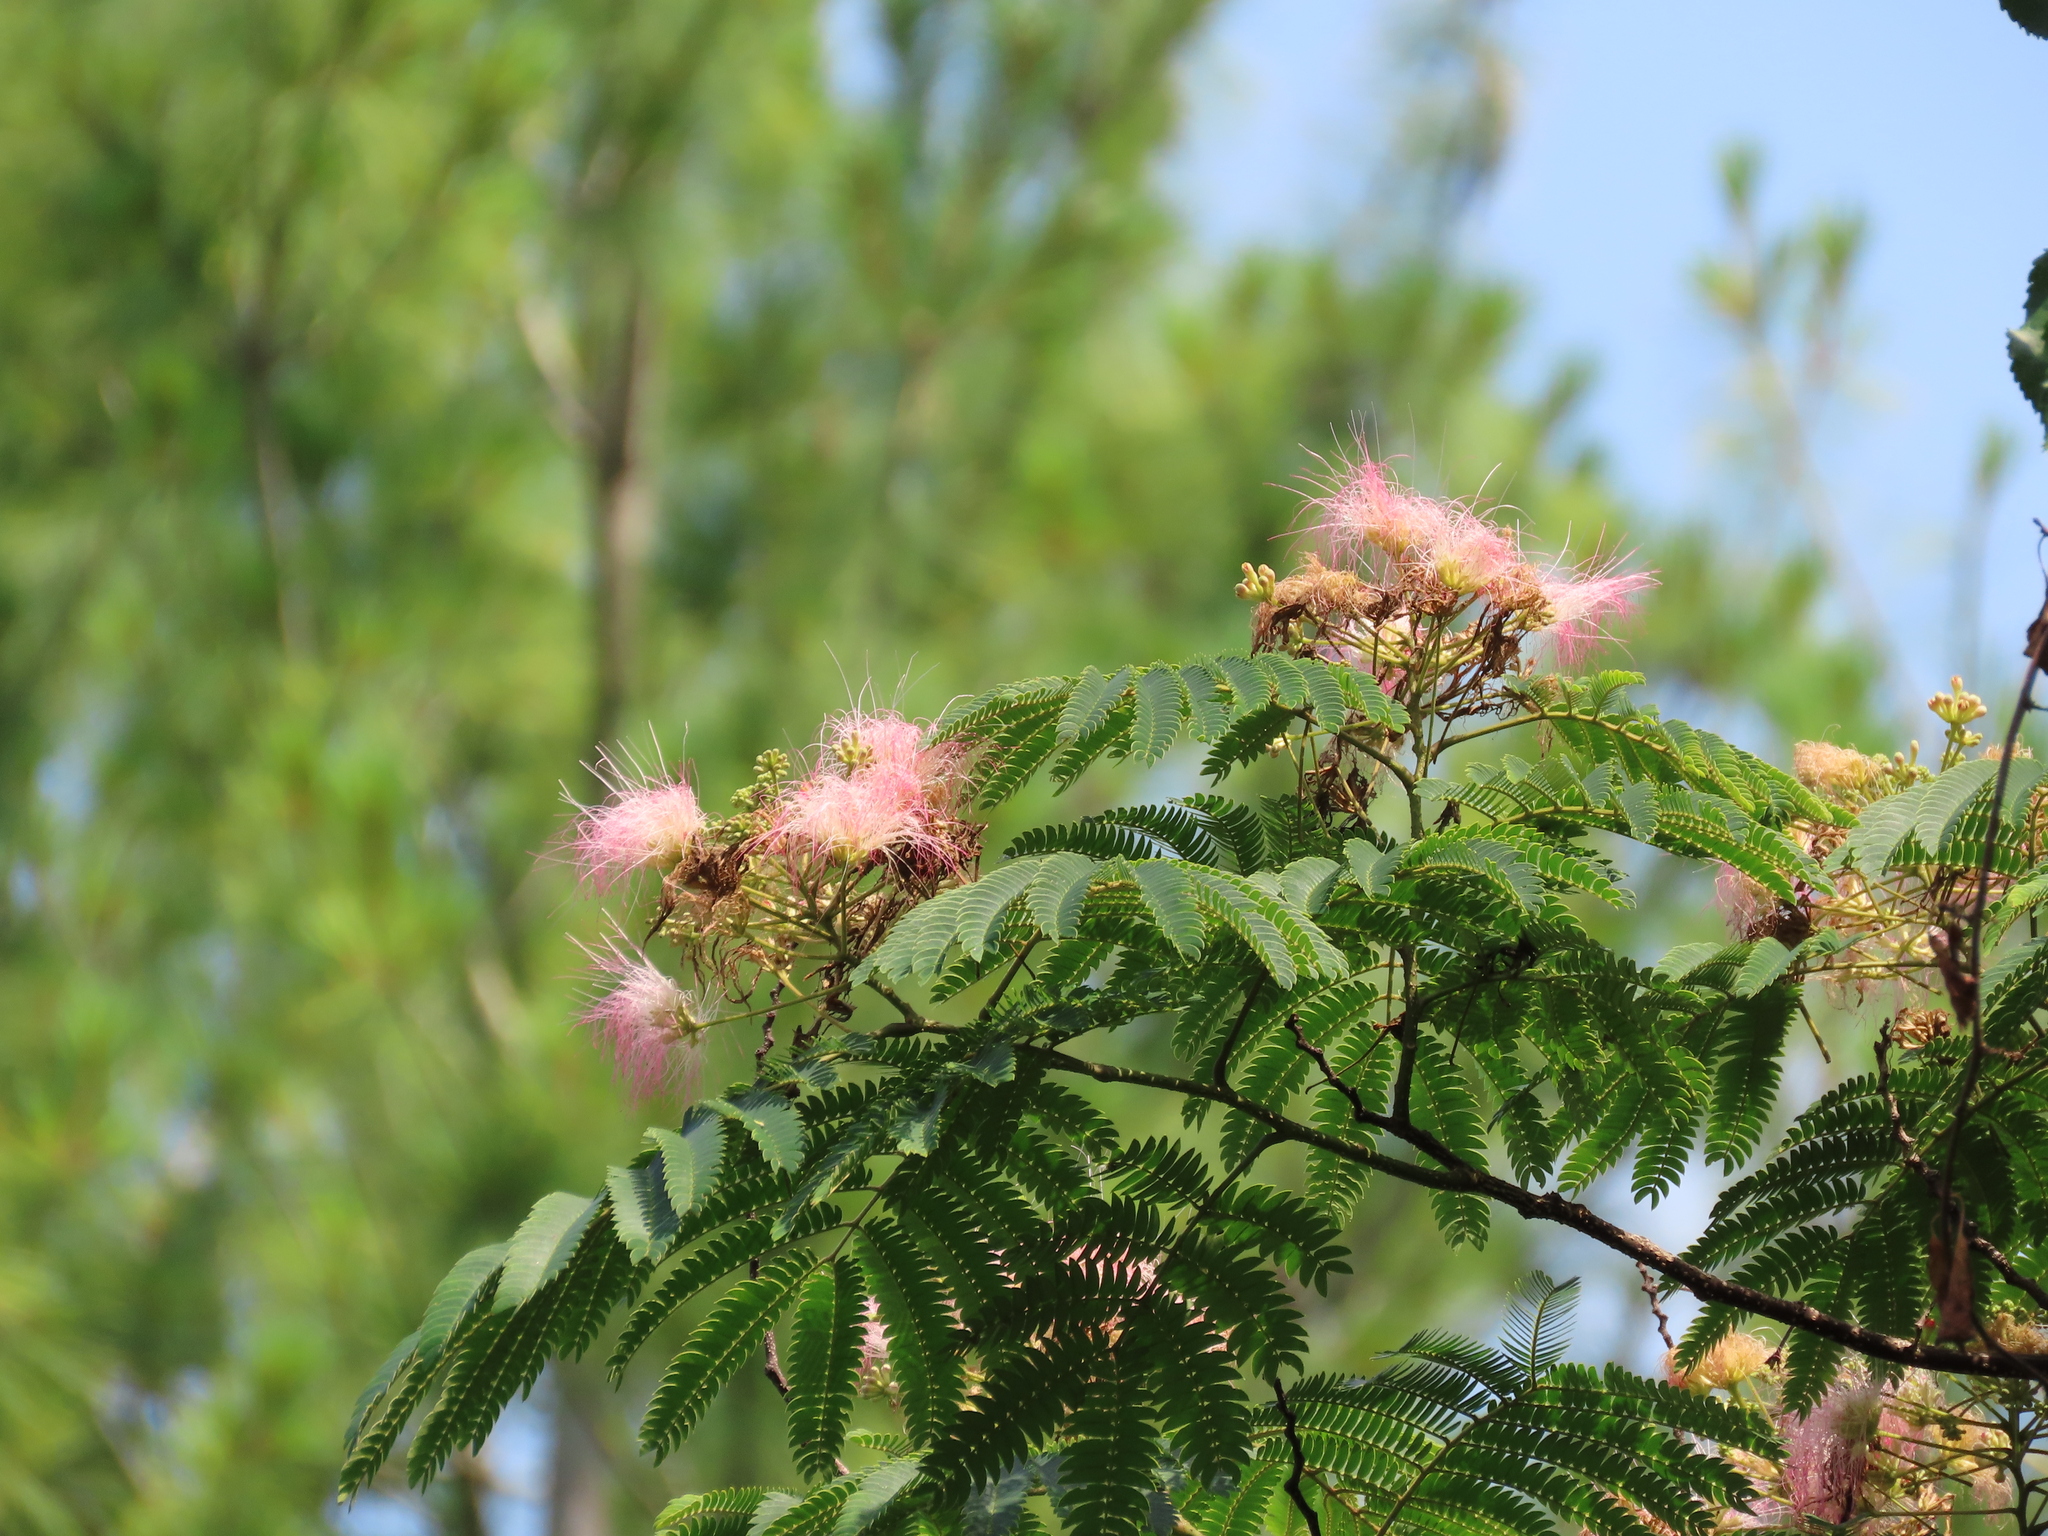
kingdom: Plantae
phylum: Tracheophyta
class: Magnoliopsida
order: Fabales
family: Fabaceae
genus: Albizia
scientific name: Albizia julibrissin
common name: Silktree
